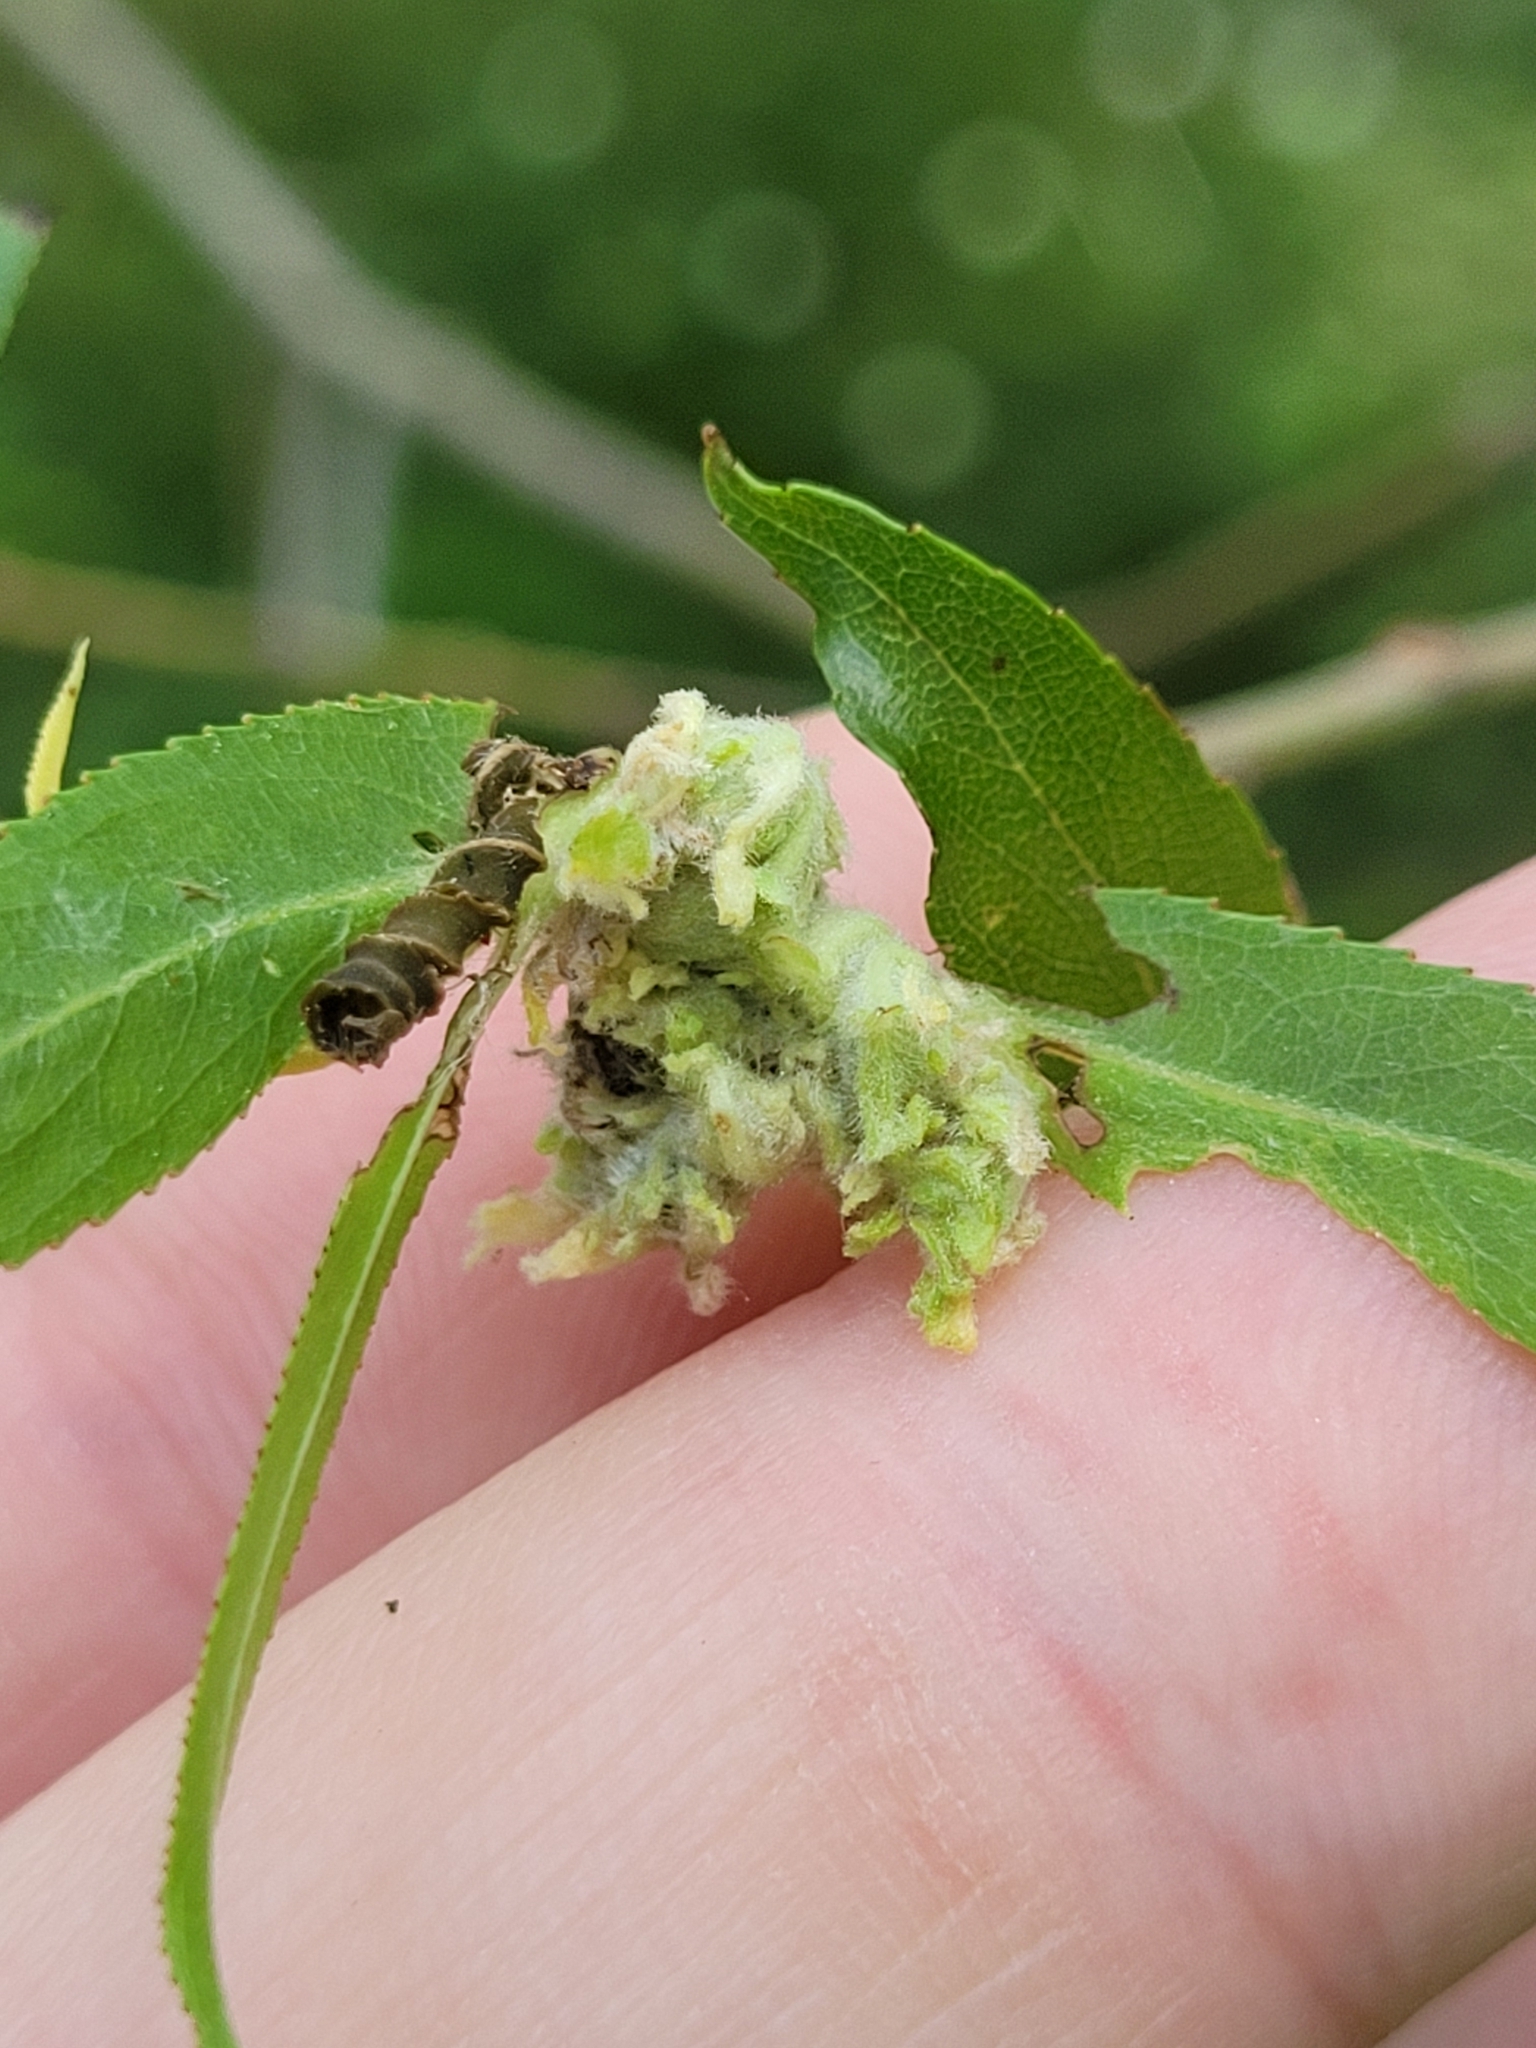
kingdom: Animalia
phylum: Arthropoda
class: Arachnida
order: Trombidiformes
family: Eriophyidae
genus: Aculops
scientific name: Aculops
